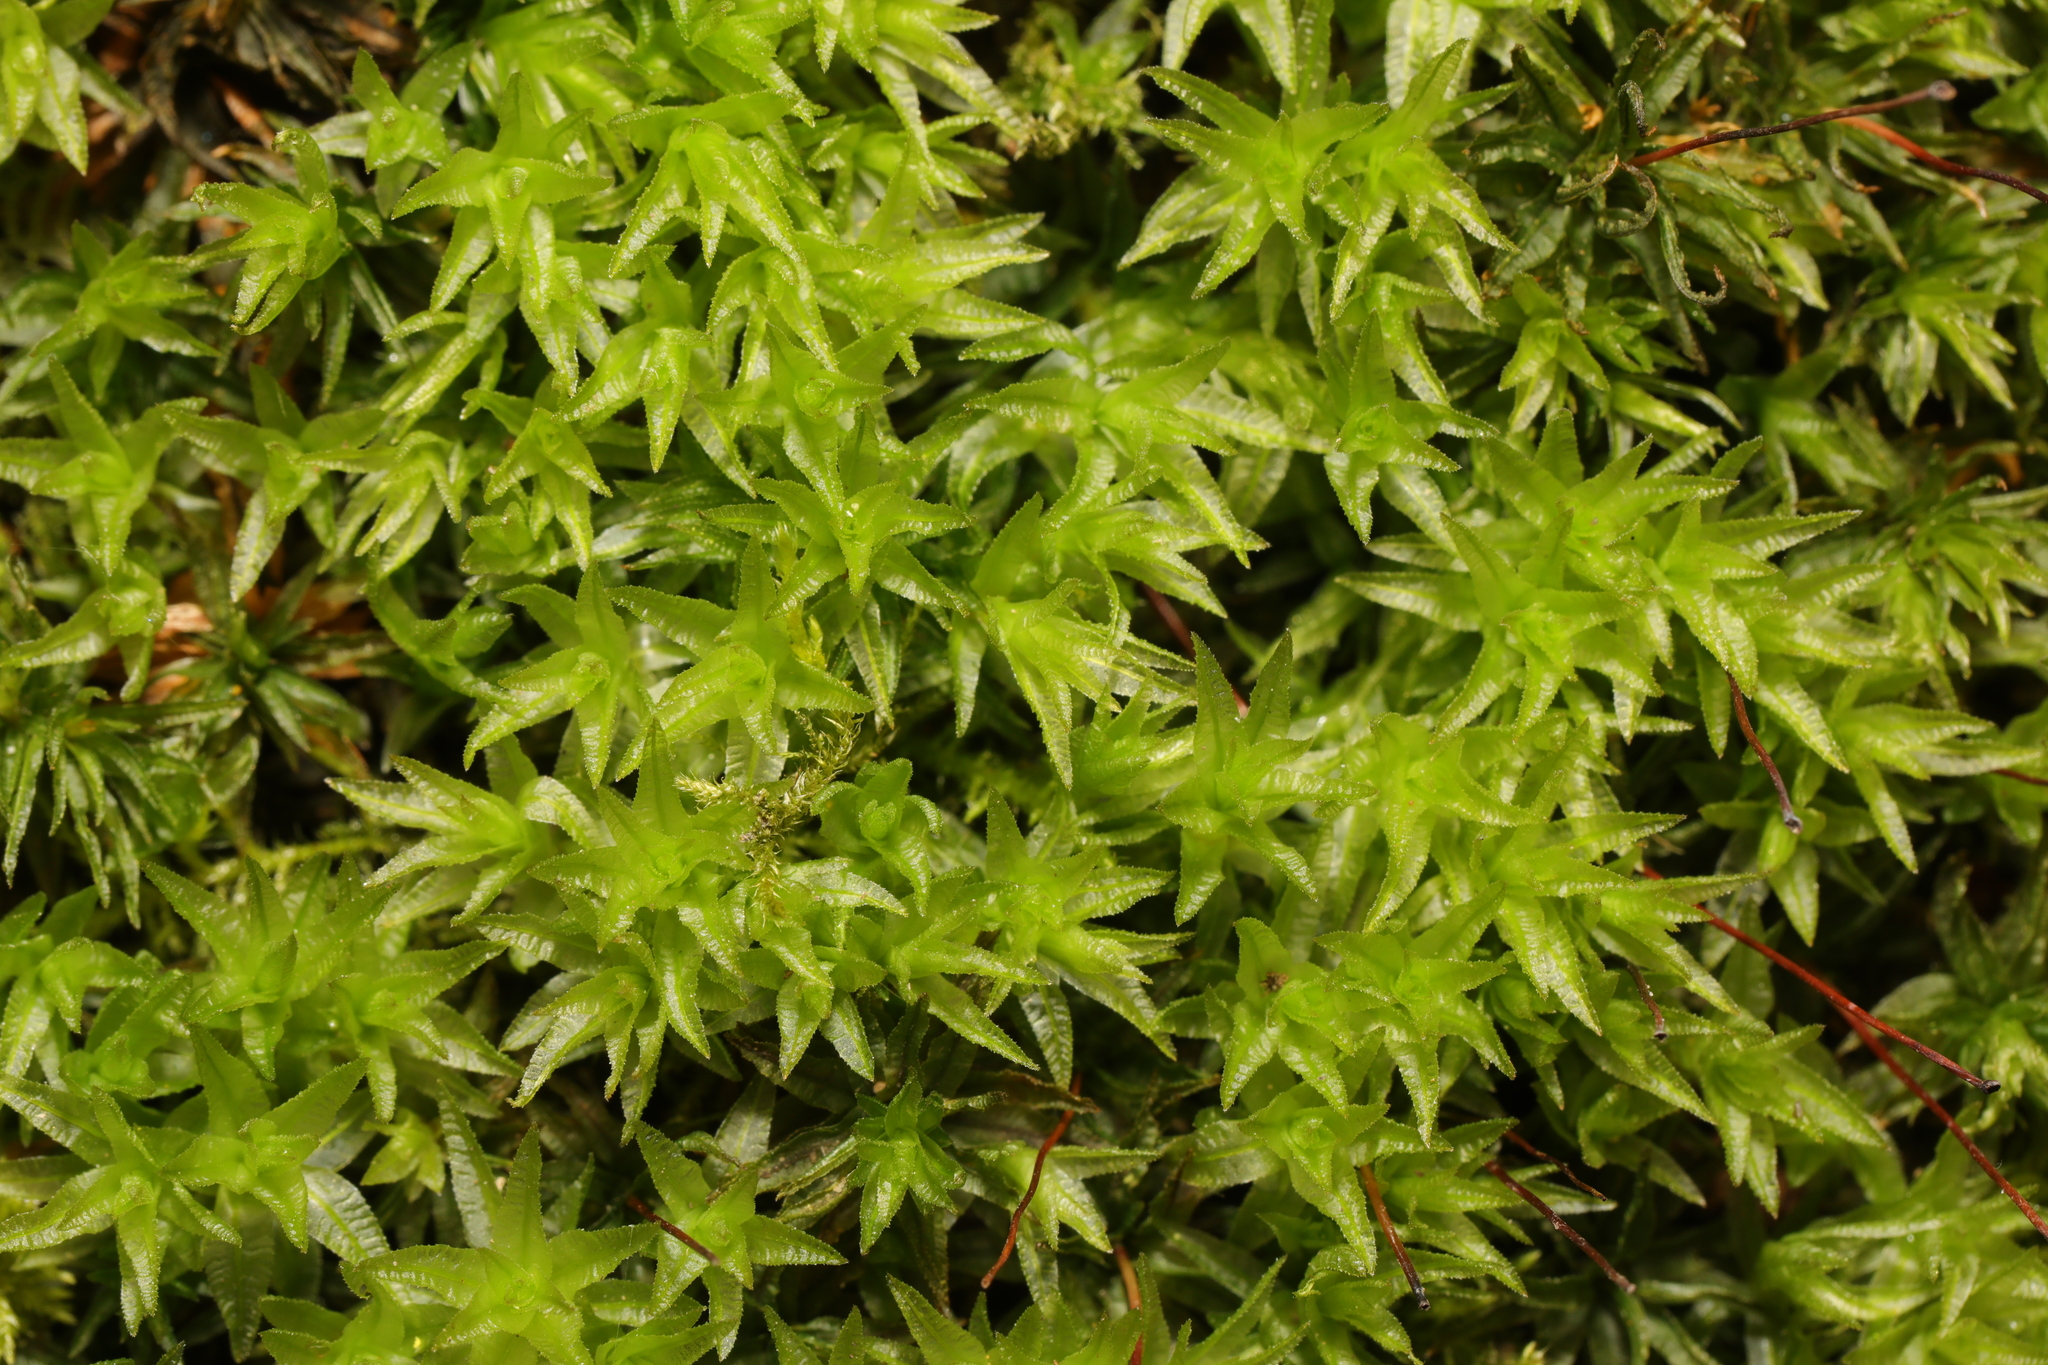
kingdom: Plantae
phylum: Bryophyta
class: Polytrichopsida
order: Polytrichales
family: Polytrichaceae
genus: Atrichum
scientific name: Atrichum undulatum
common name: Common smoothcap
